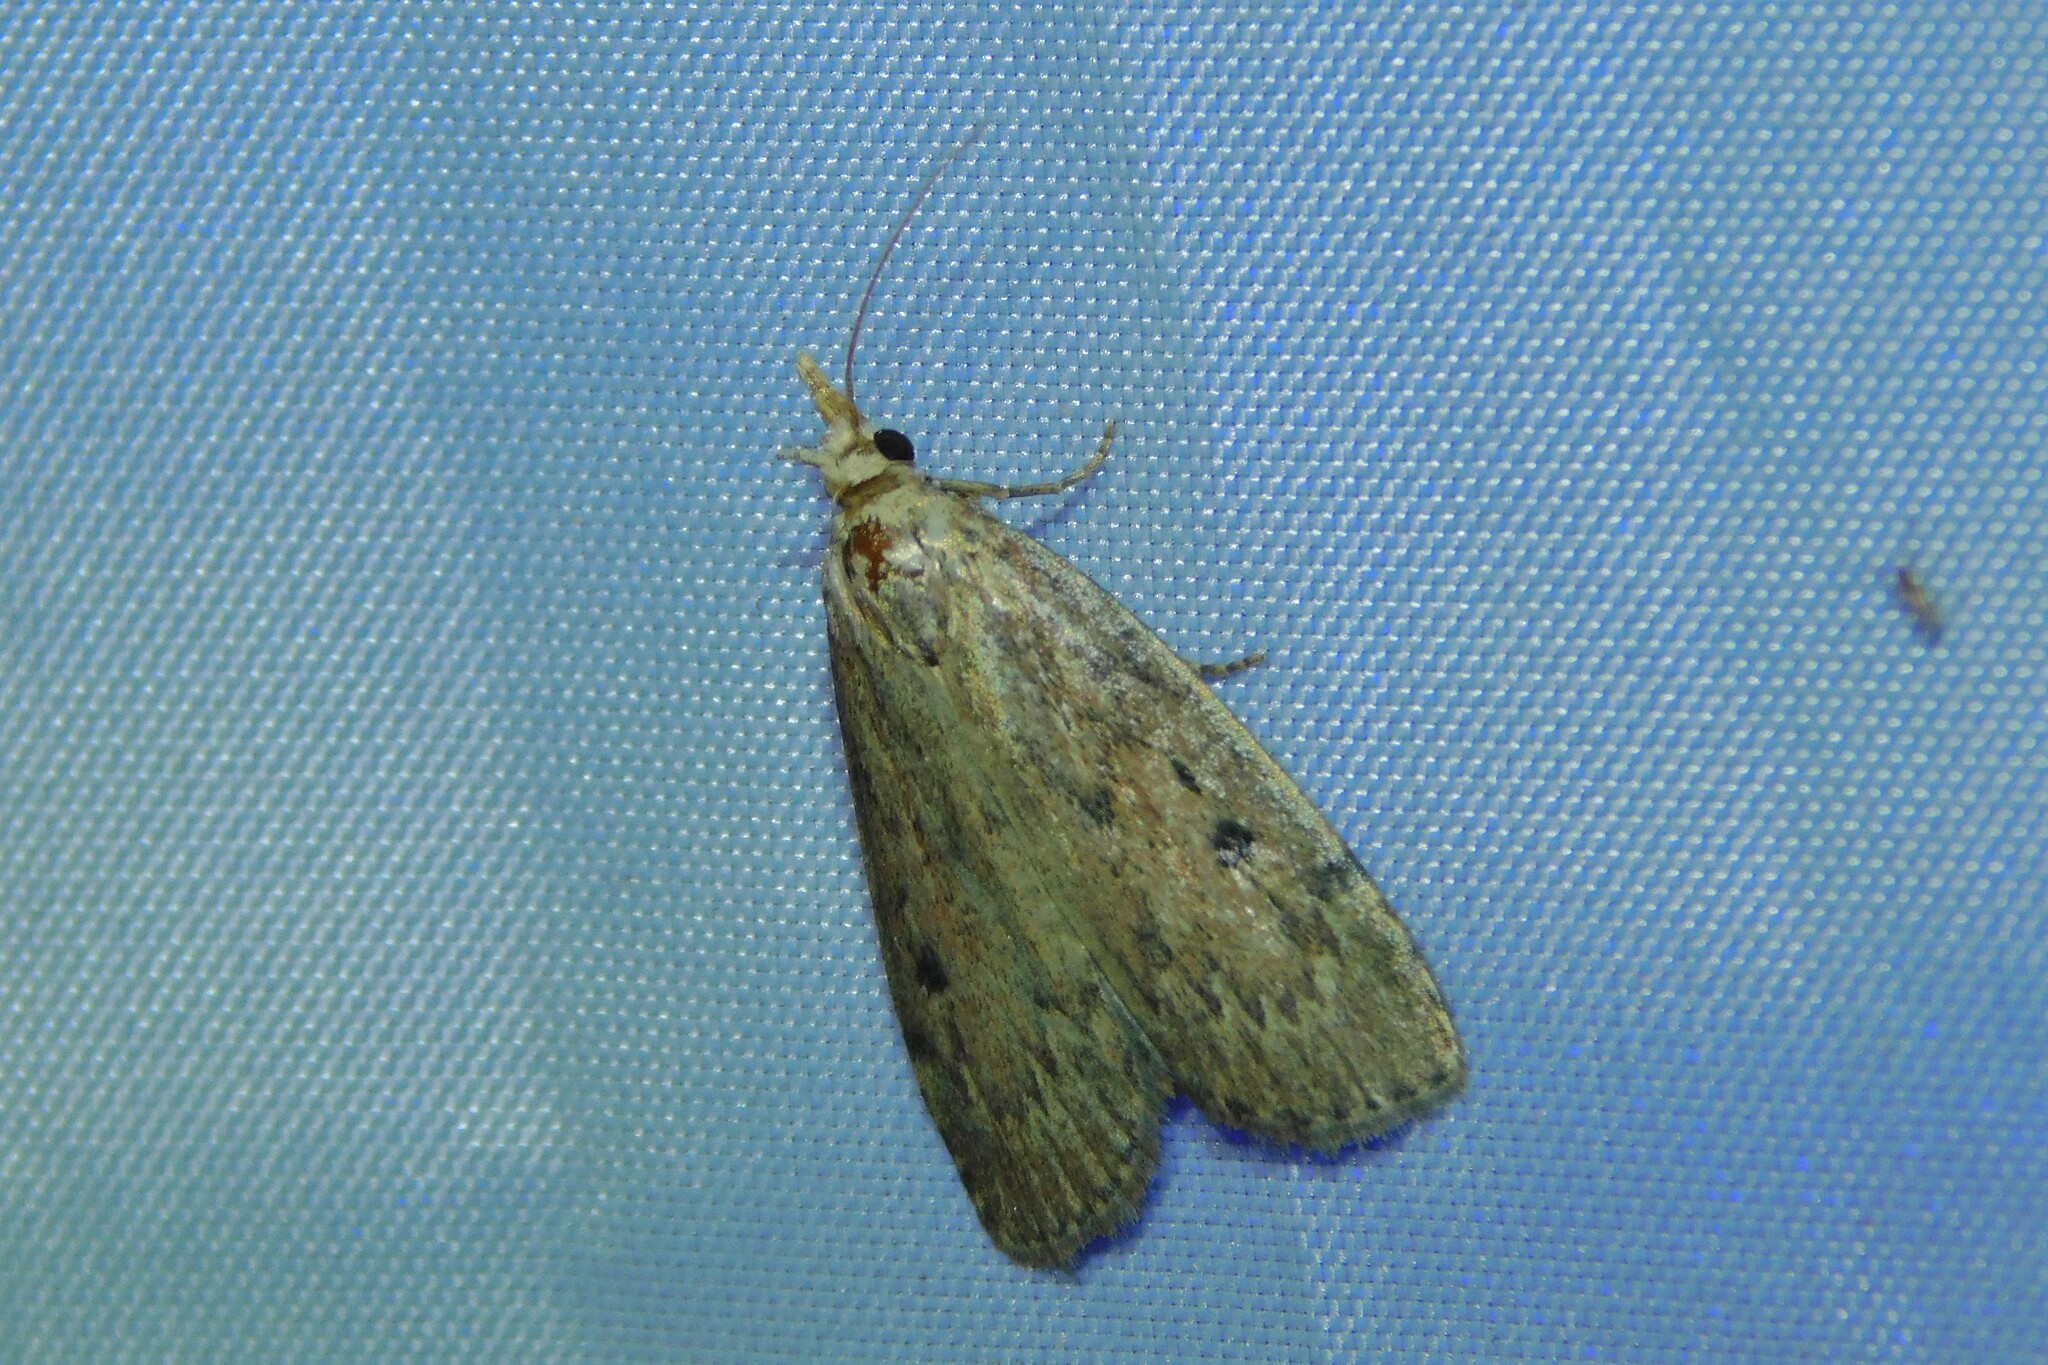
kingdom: Animalia
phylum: Arthropoda
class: Insecta
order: Lepidoptera
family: Pyralidae
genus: Aphomia
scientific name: Aphomia sociella
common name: Bee moth
